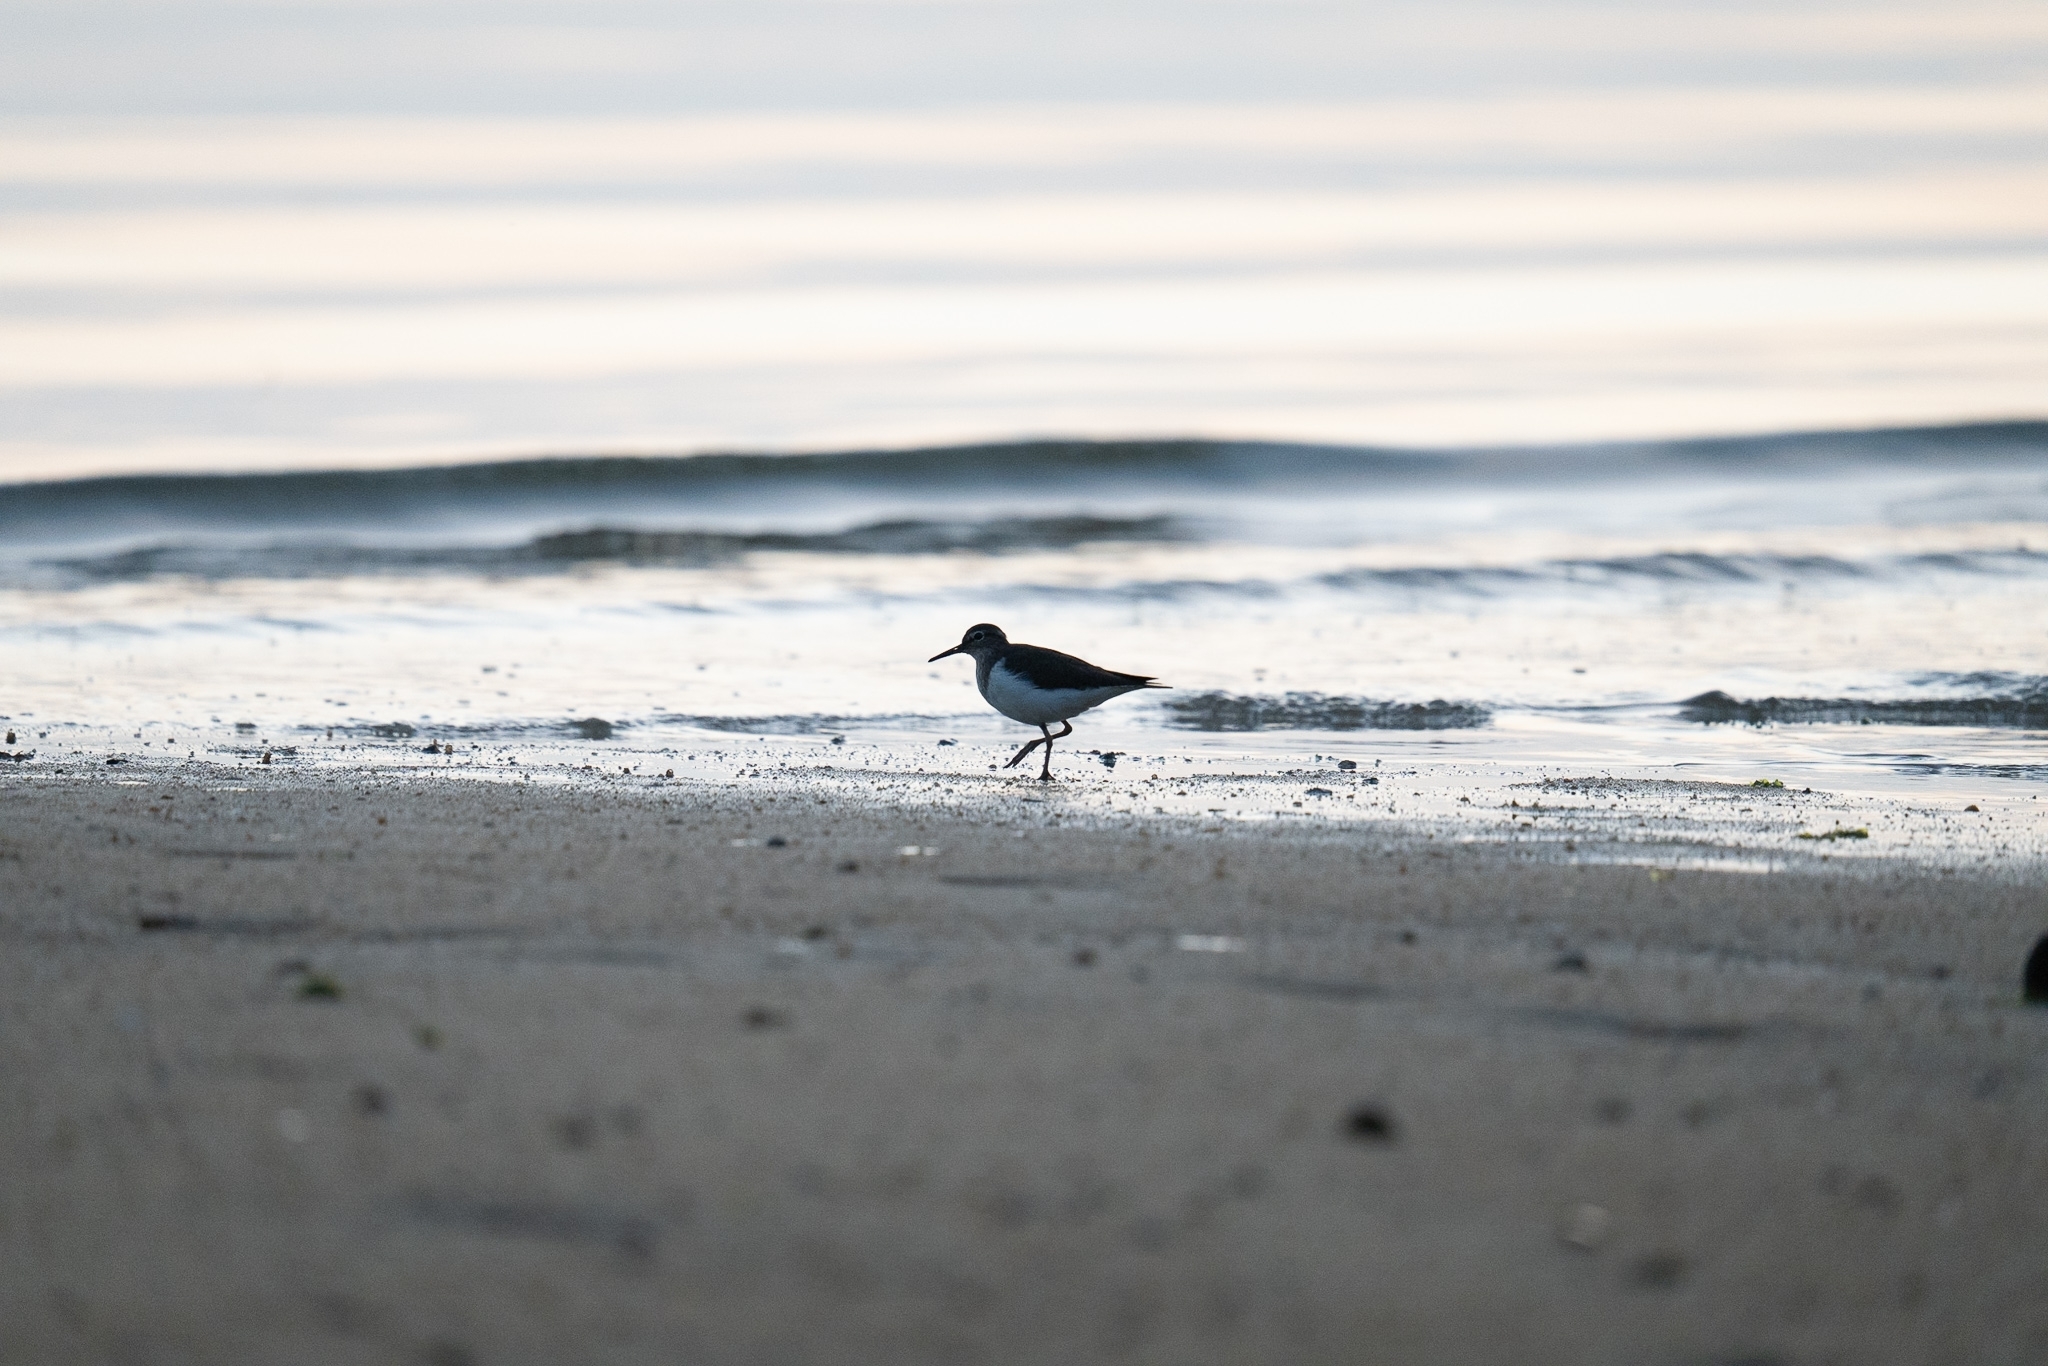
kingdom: Animalia
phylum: Chordata
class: Aves
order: Charadriiformes
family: Scolopacidae
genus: Actitis
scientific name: Actitis hypoleucos
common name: Common sandpiper
